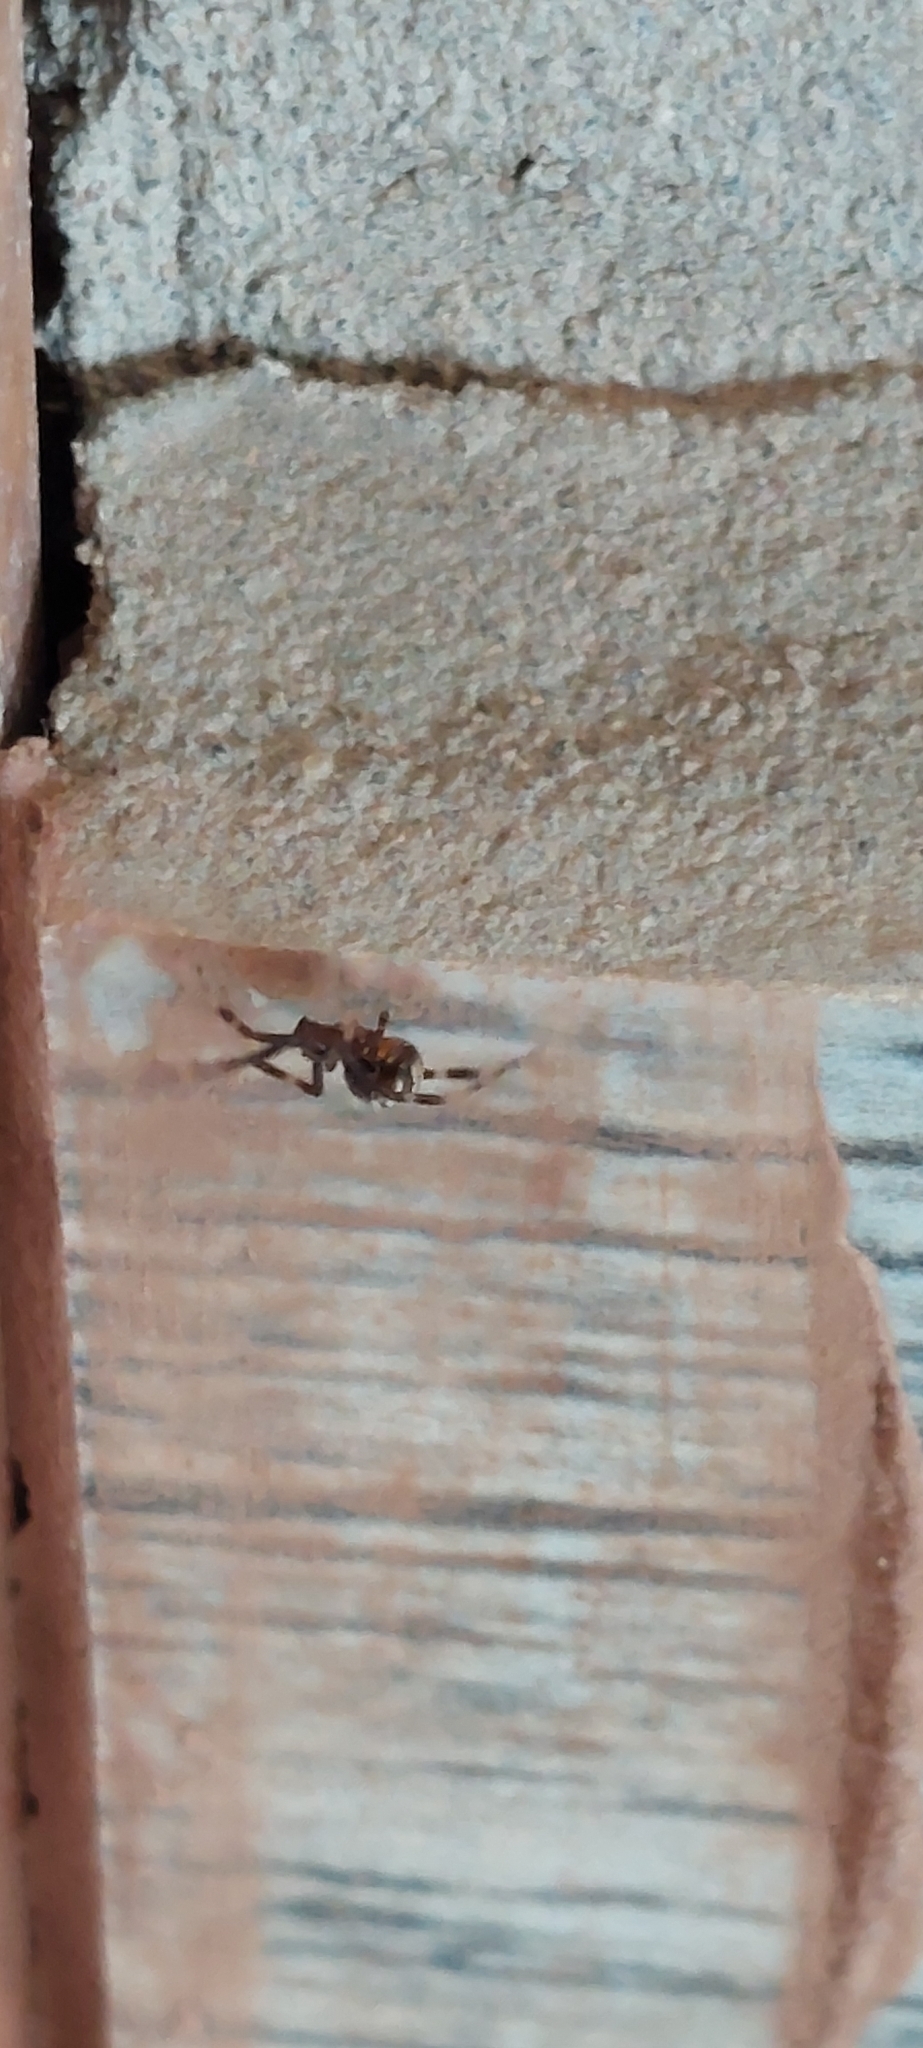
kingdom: Animalia
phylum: Arthropoda
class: Arachnida
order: Araneae
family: Theridiidae
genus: Latrodectus
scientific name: Latrodectus mirabilis
